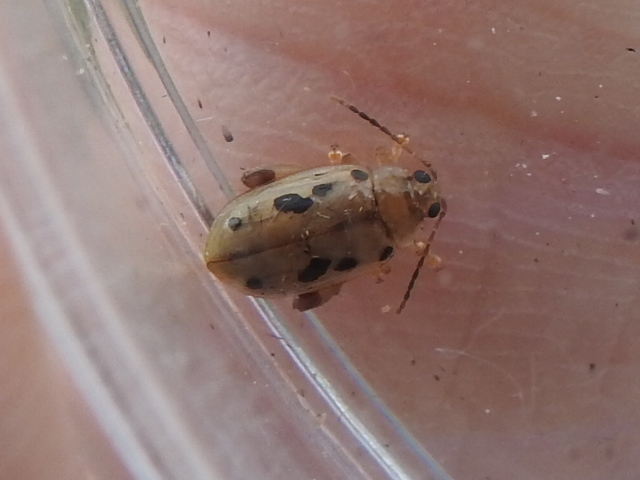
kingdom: Animalia
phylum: Arthropoda
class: Insecta
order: Coleoptera
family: Chrysomelidae
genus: Capraita
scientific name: Capraita nigrosignata
